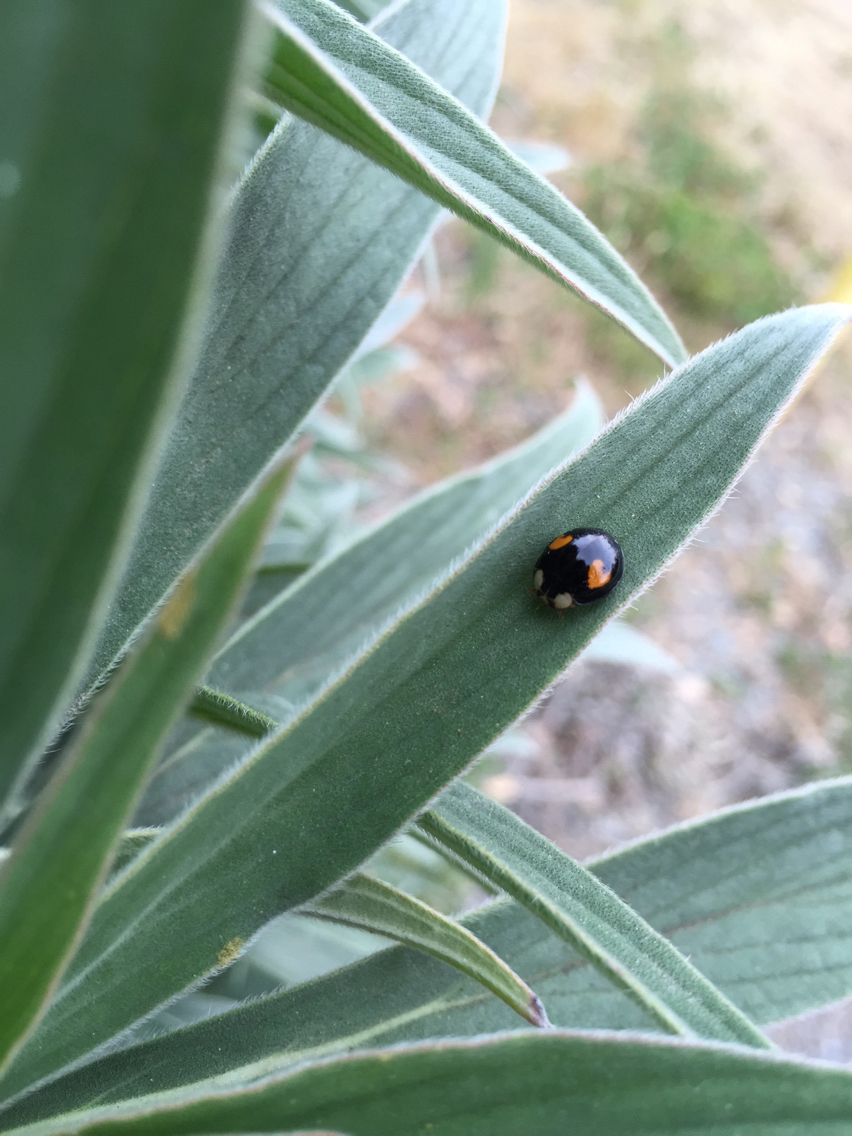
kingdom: Animalia
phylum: Arthropoda
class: Insecta
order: Coleoptera
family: Coccinellidae
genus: Harmonia
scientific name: Harmonia axyridis
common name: Harlequin ladybird
